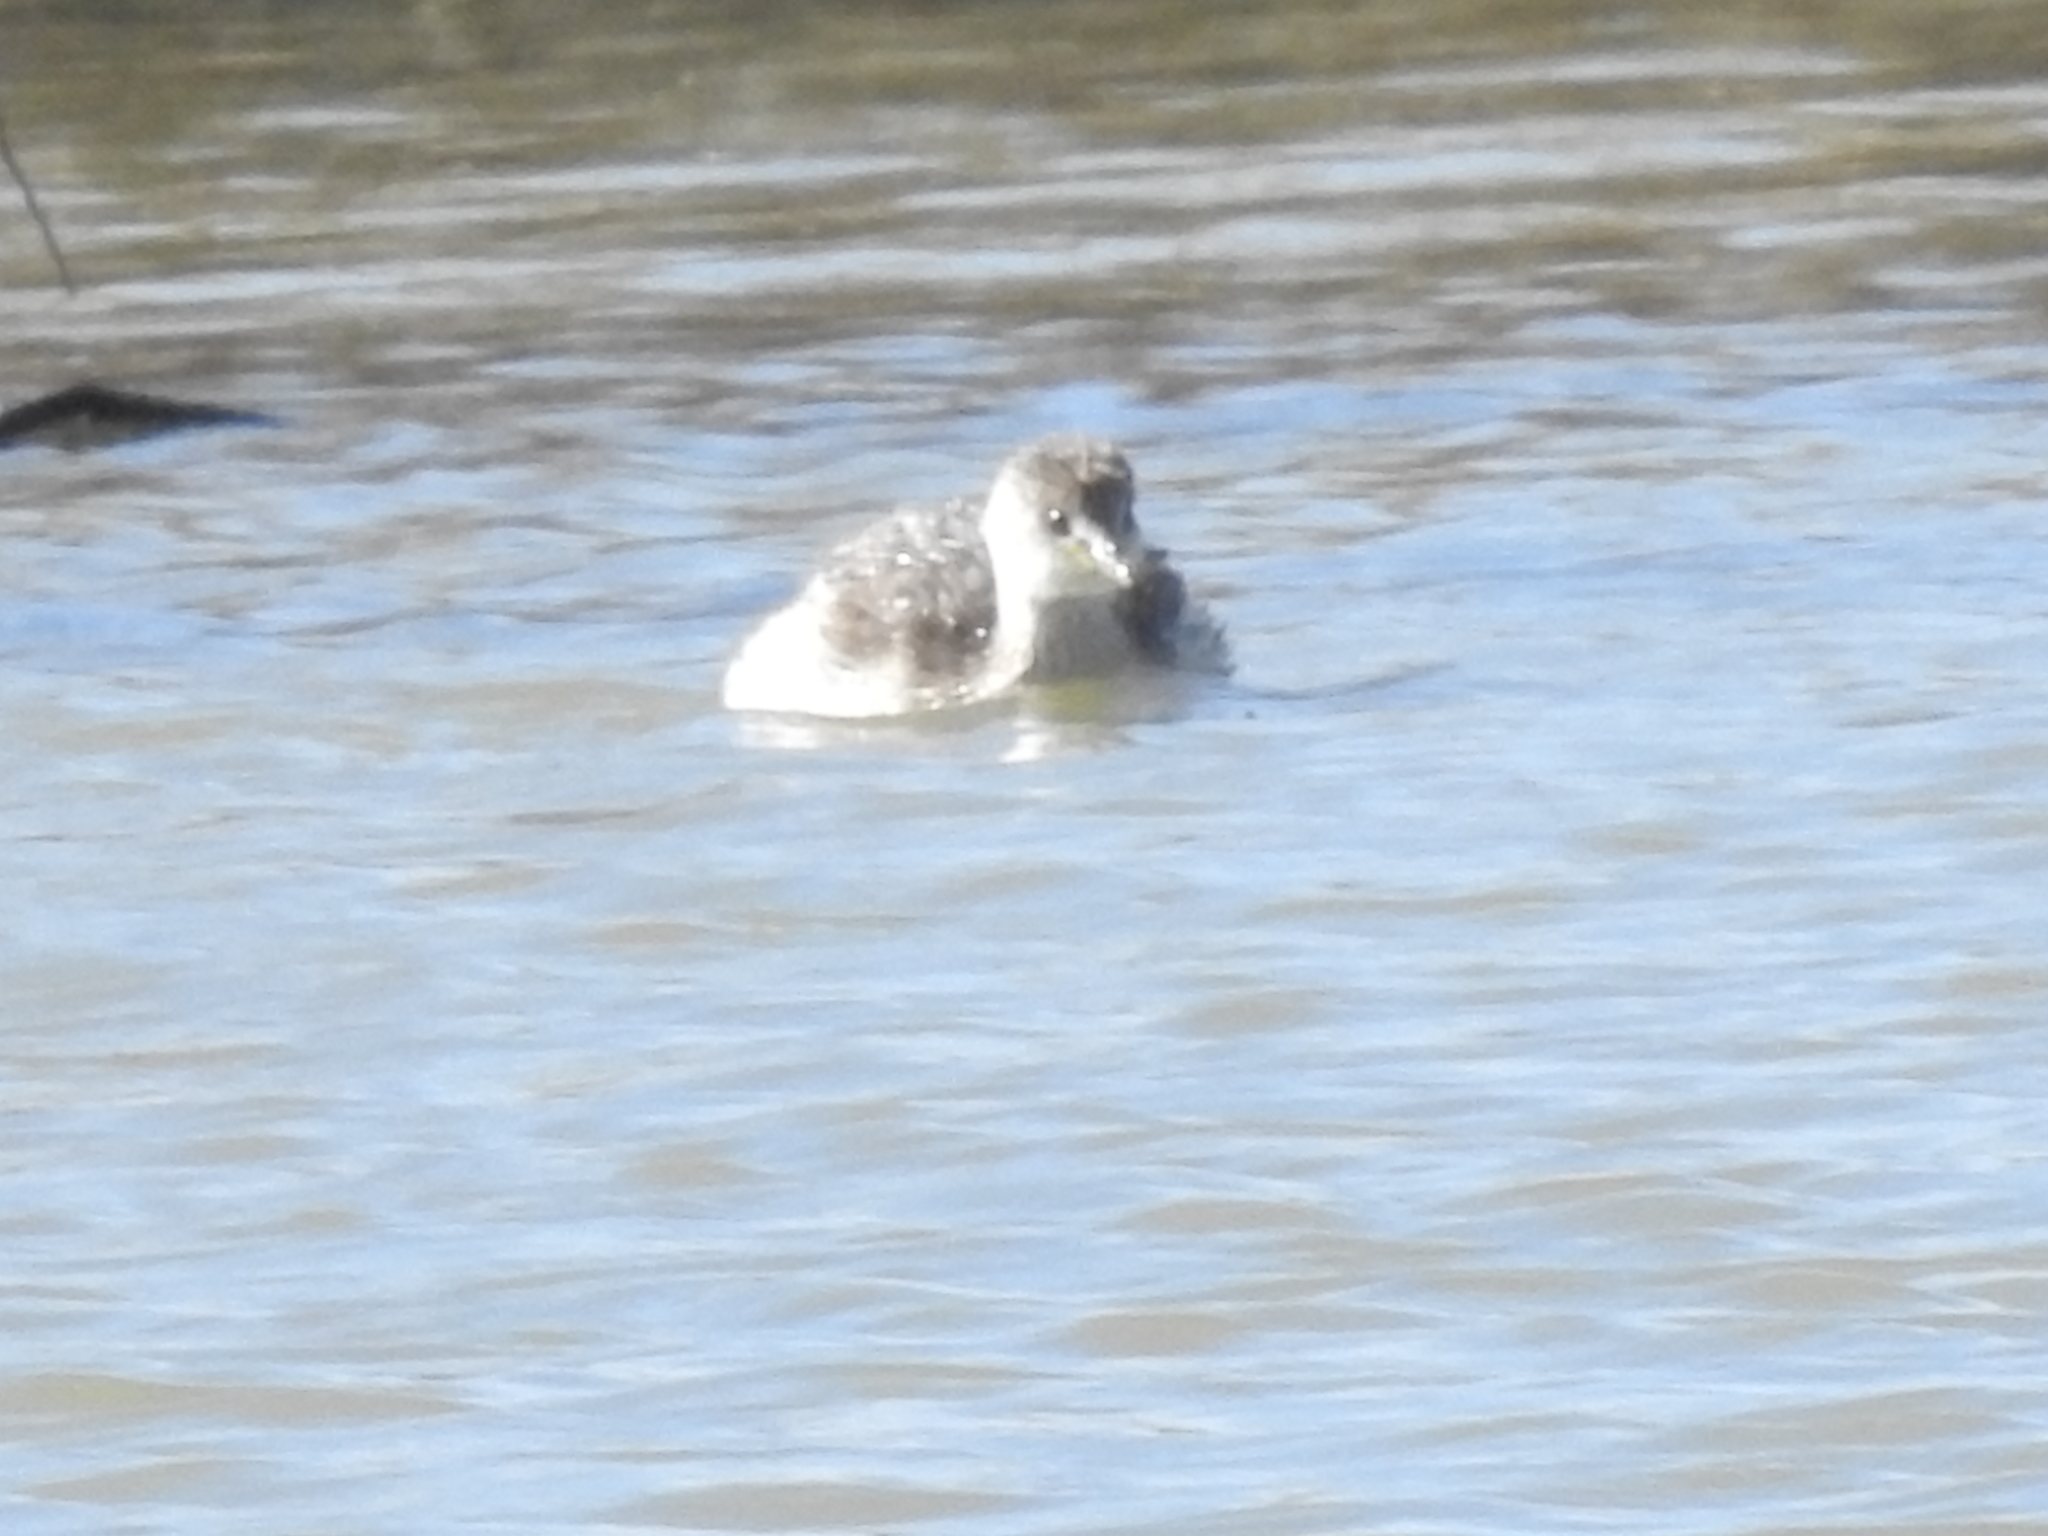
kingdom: Animalia
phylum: Chordata
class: Aves
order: Podicipediformes
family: Podicipedidae
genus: Tachybaptus
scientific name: Tachybaptus ruficollis
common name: Little grebe
